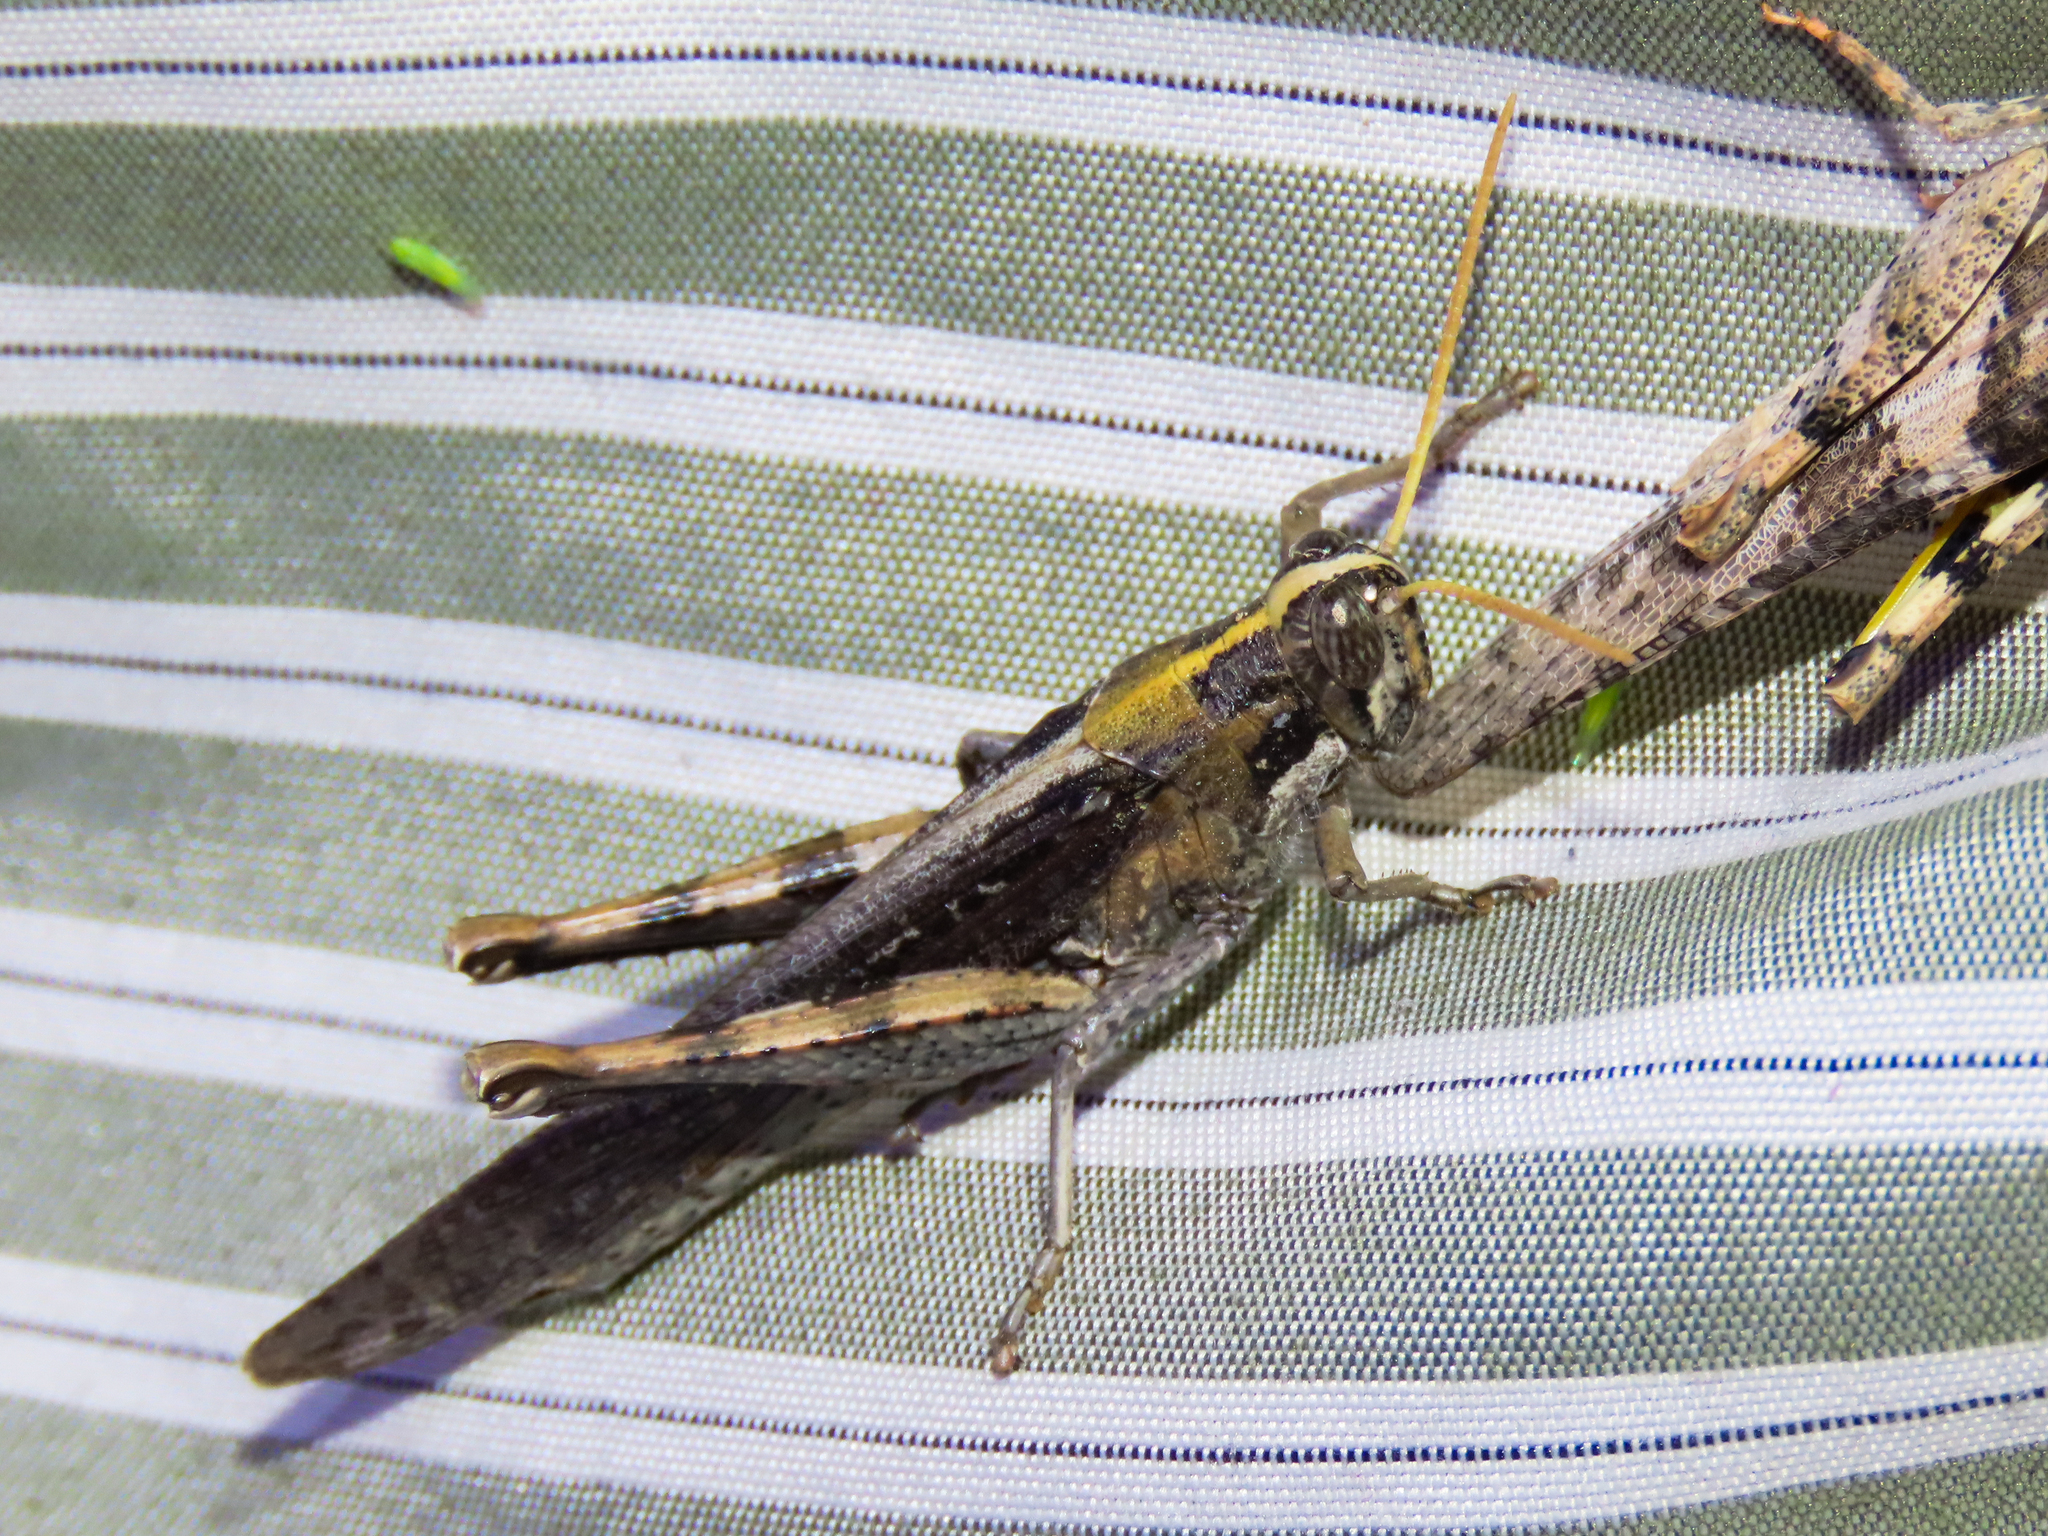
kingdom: Animalia
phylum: Arthropoda
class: Insecta
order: Orthoptera
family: Acrididae
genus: Schistocerca
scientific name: Schistocerca nitens
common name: Vagrant grasshopper
